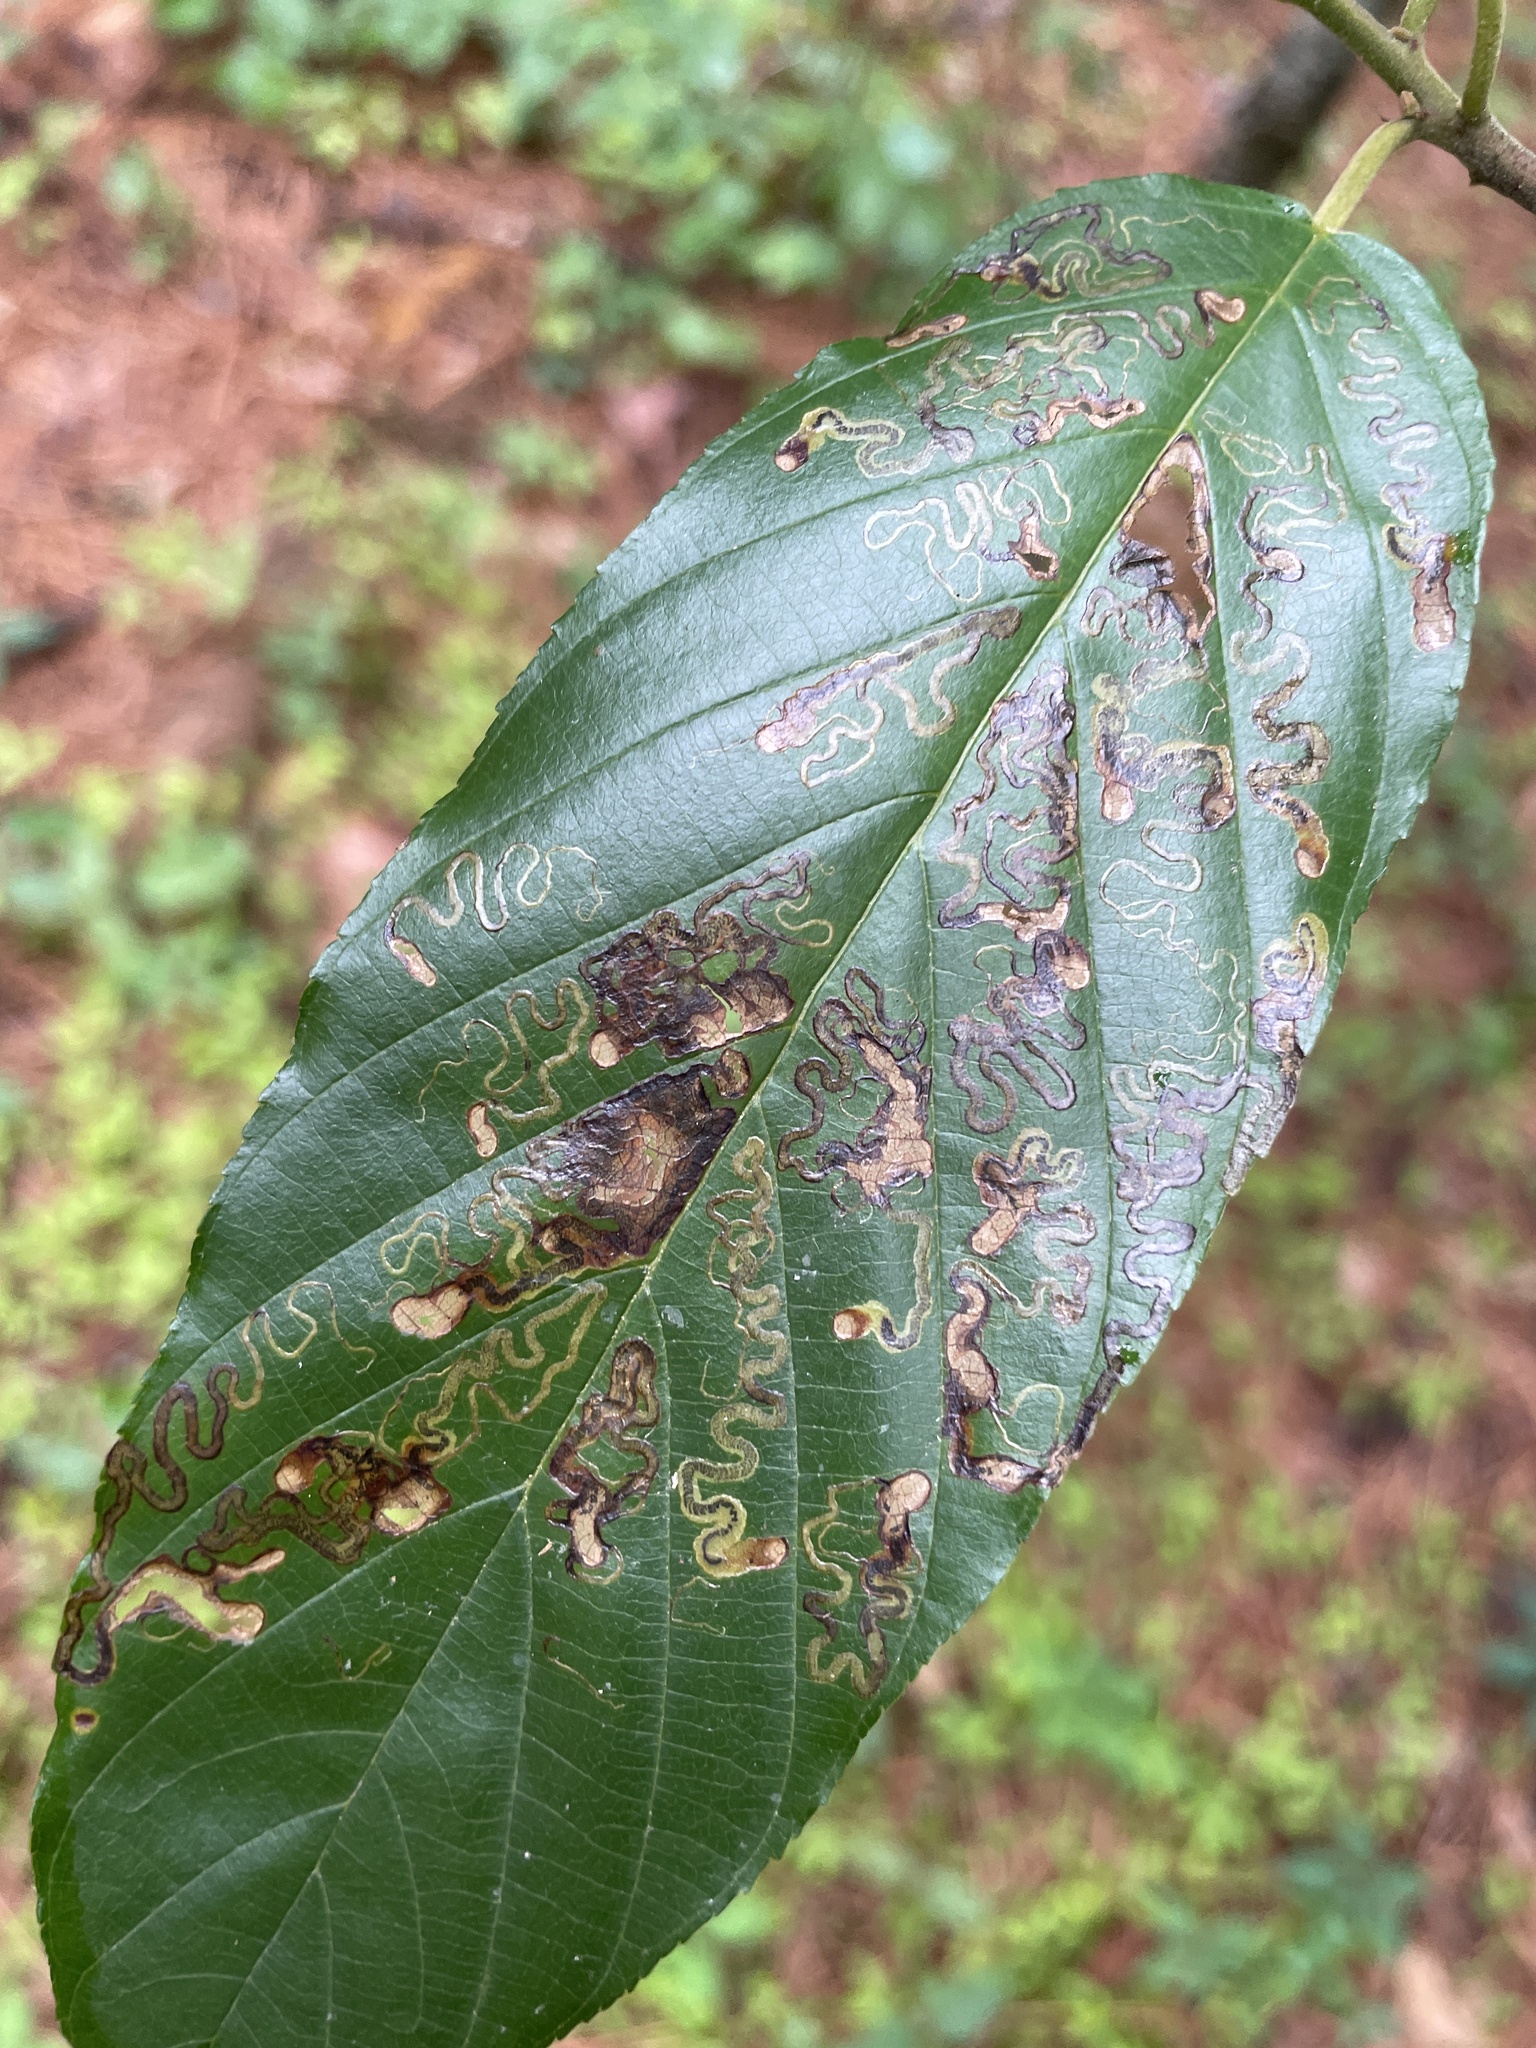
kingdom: Animalia
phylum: Arthropoda
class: Insecta
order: Lepidoptera
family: Nepticulidae
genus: Stigmella
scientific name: Stigmella rhamnicola
